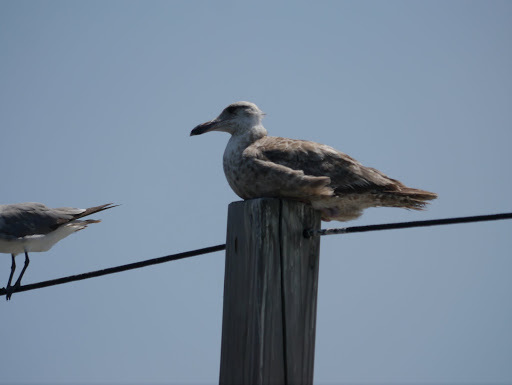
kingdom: Animalia
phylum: Chordata
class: Aves
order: Charadriiformes
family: Laridae
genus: Larus
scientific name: Larus argentatus
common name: Herring gull
